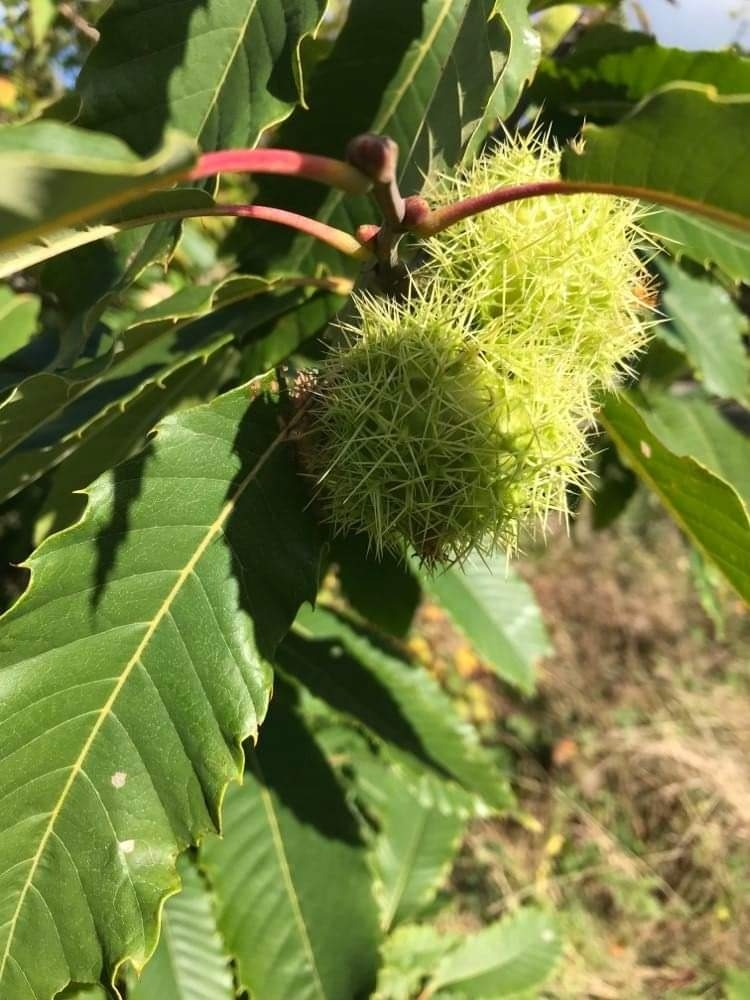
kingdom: Plantae
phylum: Tracheophyta
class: Magnoliopsida
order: Fagales
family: Fagaceae
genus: Castanea
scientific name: Castanea sativa
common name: Sweet chestnut
